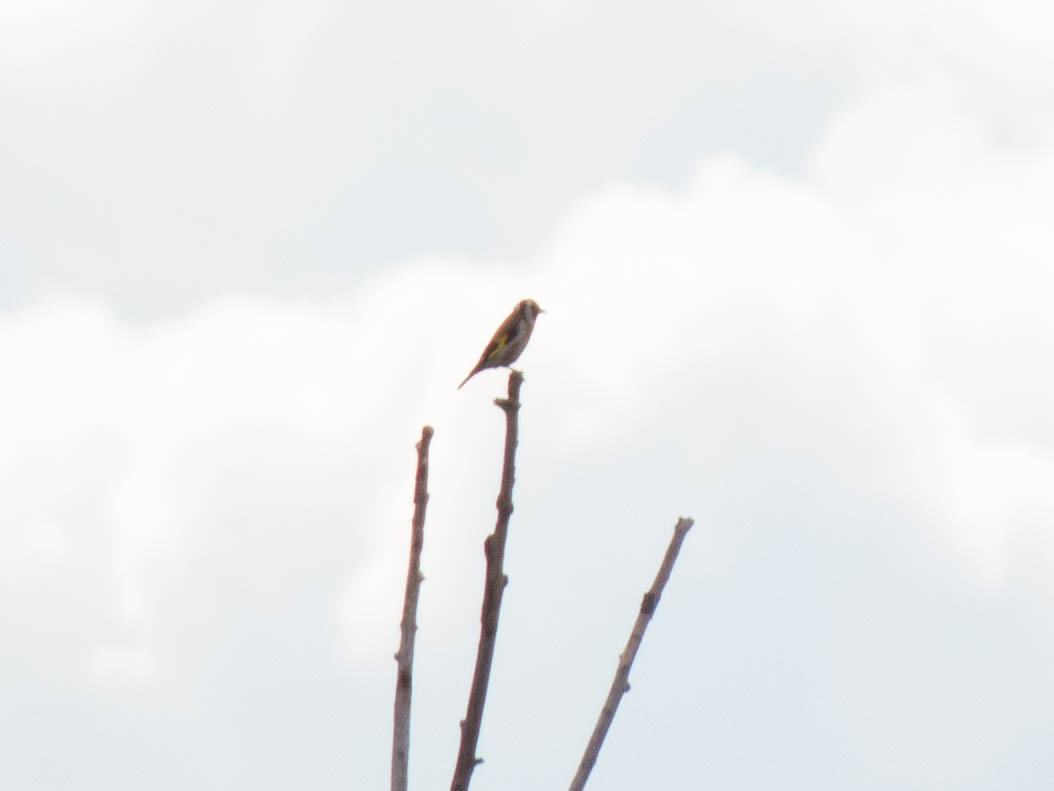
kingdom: Animalia
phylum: Chordata
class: Aves
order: Passeriformes
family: Fringillidae
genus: Carduelis
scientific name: Carduelis carduelis
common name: European goldfinch
